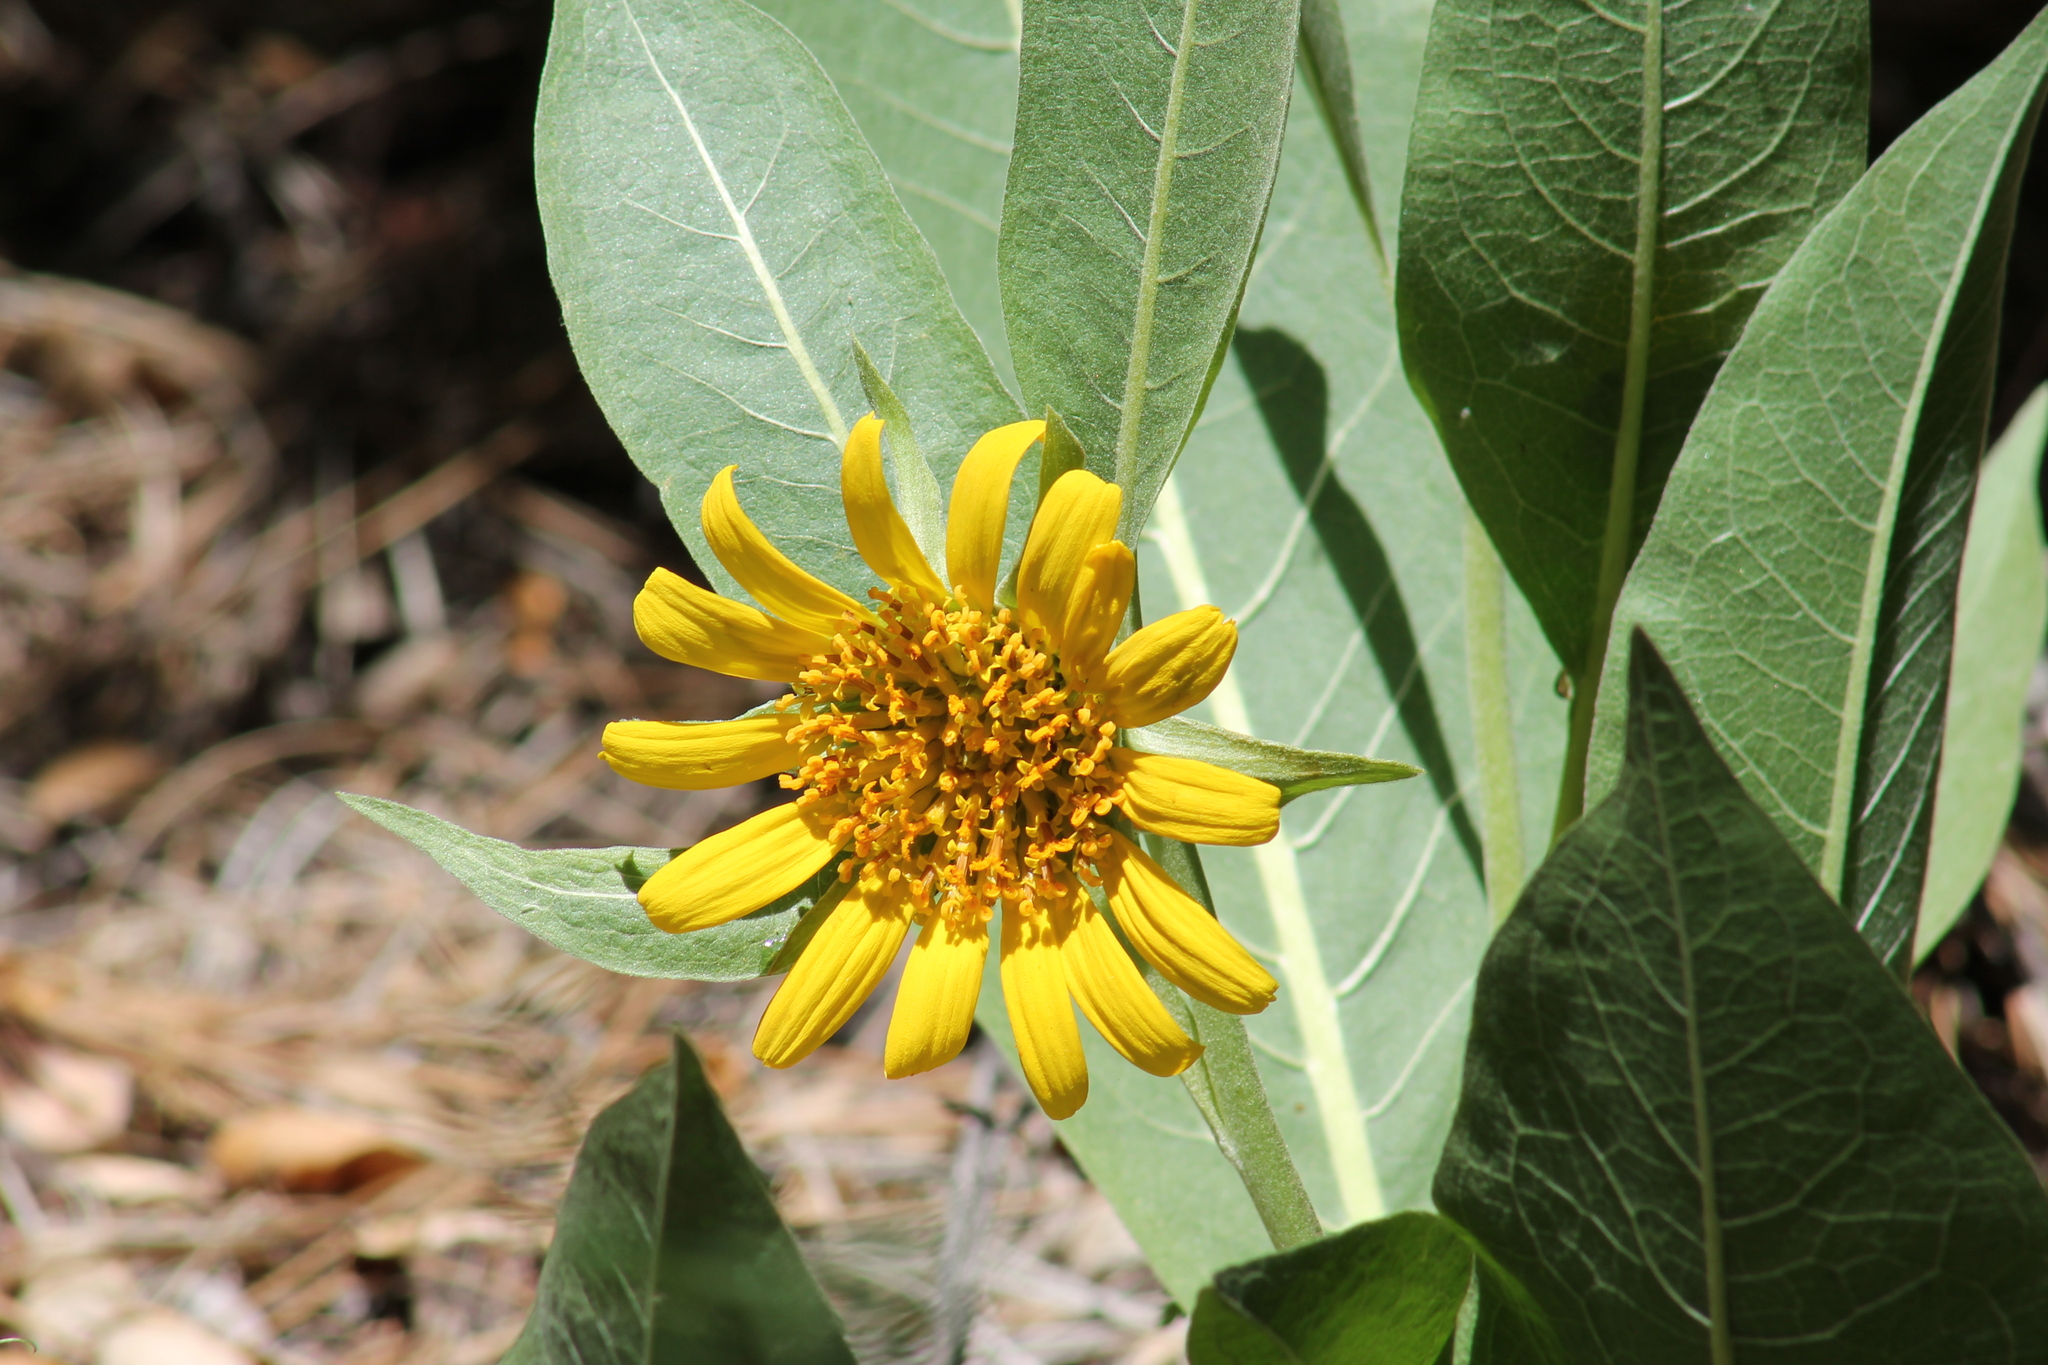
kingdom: Plantae
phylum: Tracheophyta
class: Magnoliopsida
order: Asterales
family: Asteraceae
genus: Wyethia
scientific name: Wyethia helenioides
